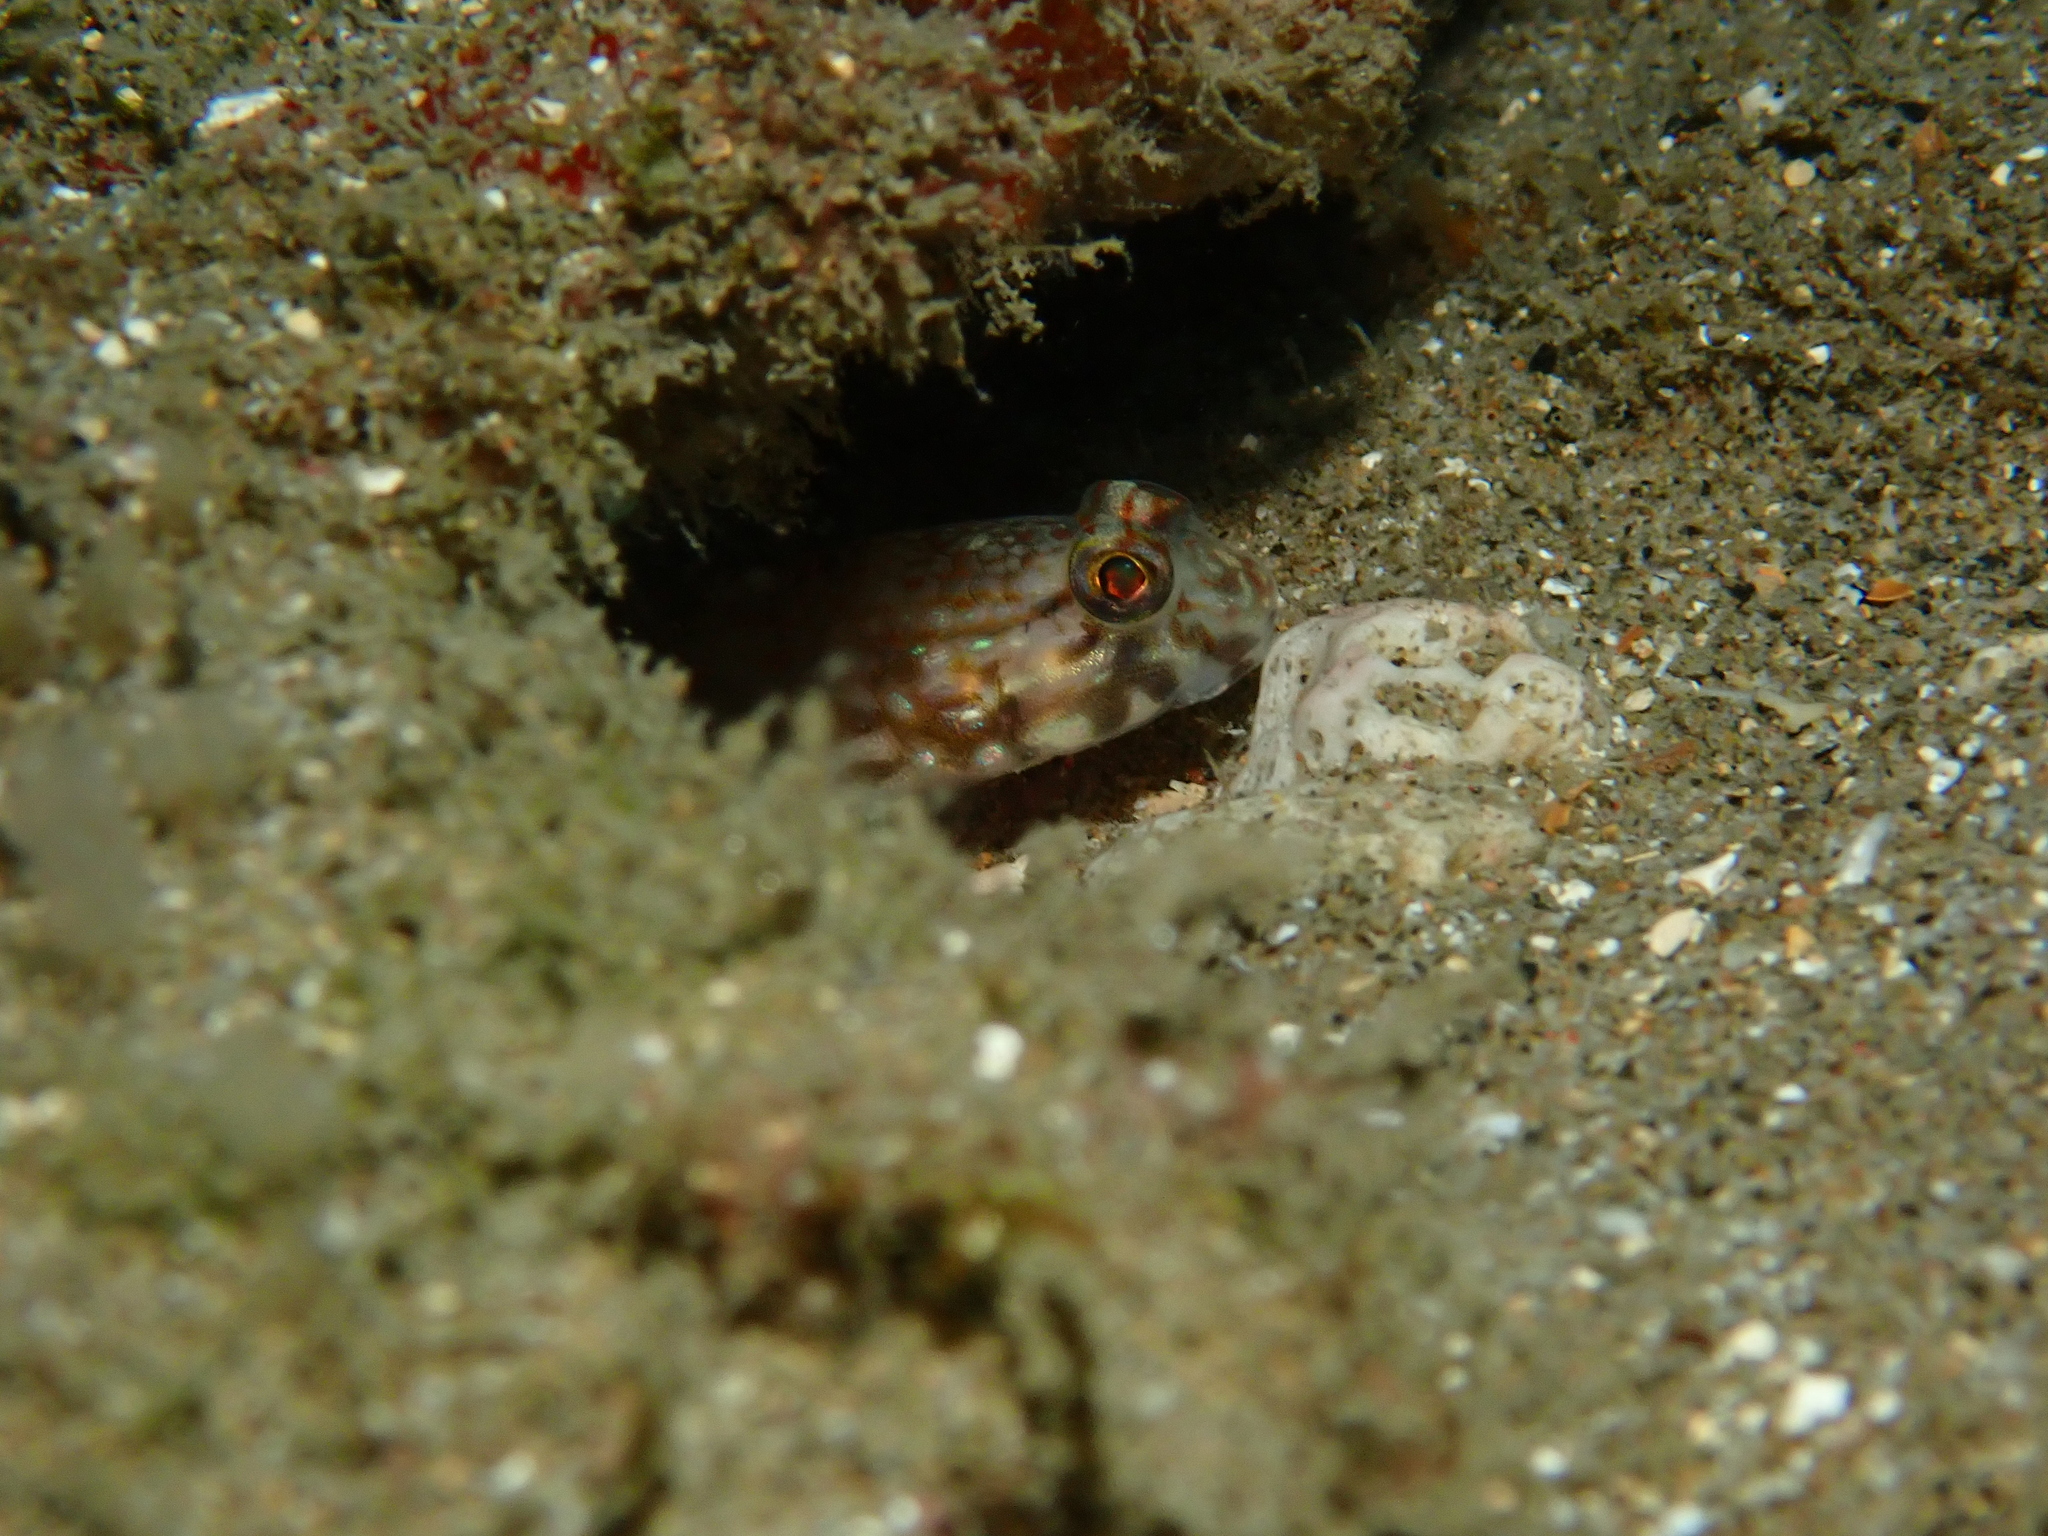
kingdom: Animalia
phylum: Chordata
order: Perciformes
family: Gobiidae
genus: Istigobius
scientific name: Istigobius campbelli
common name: Campbel's goby
